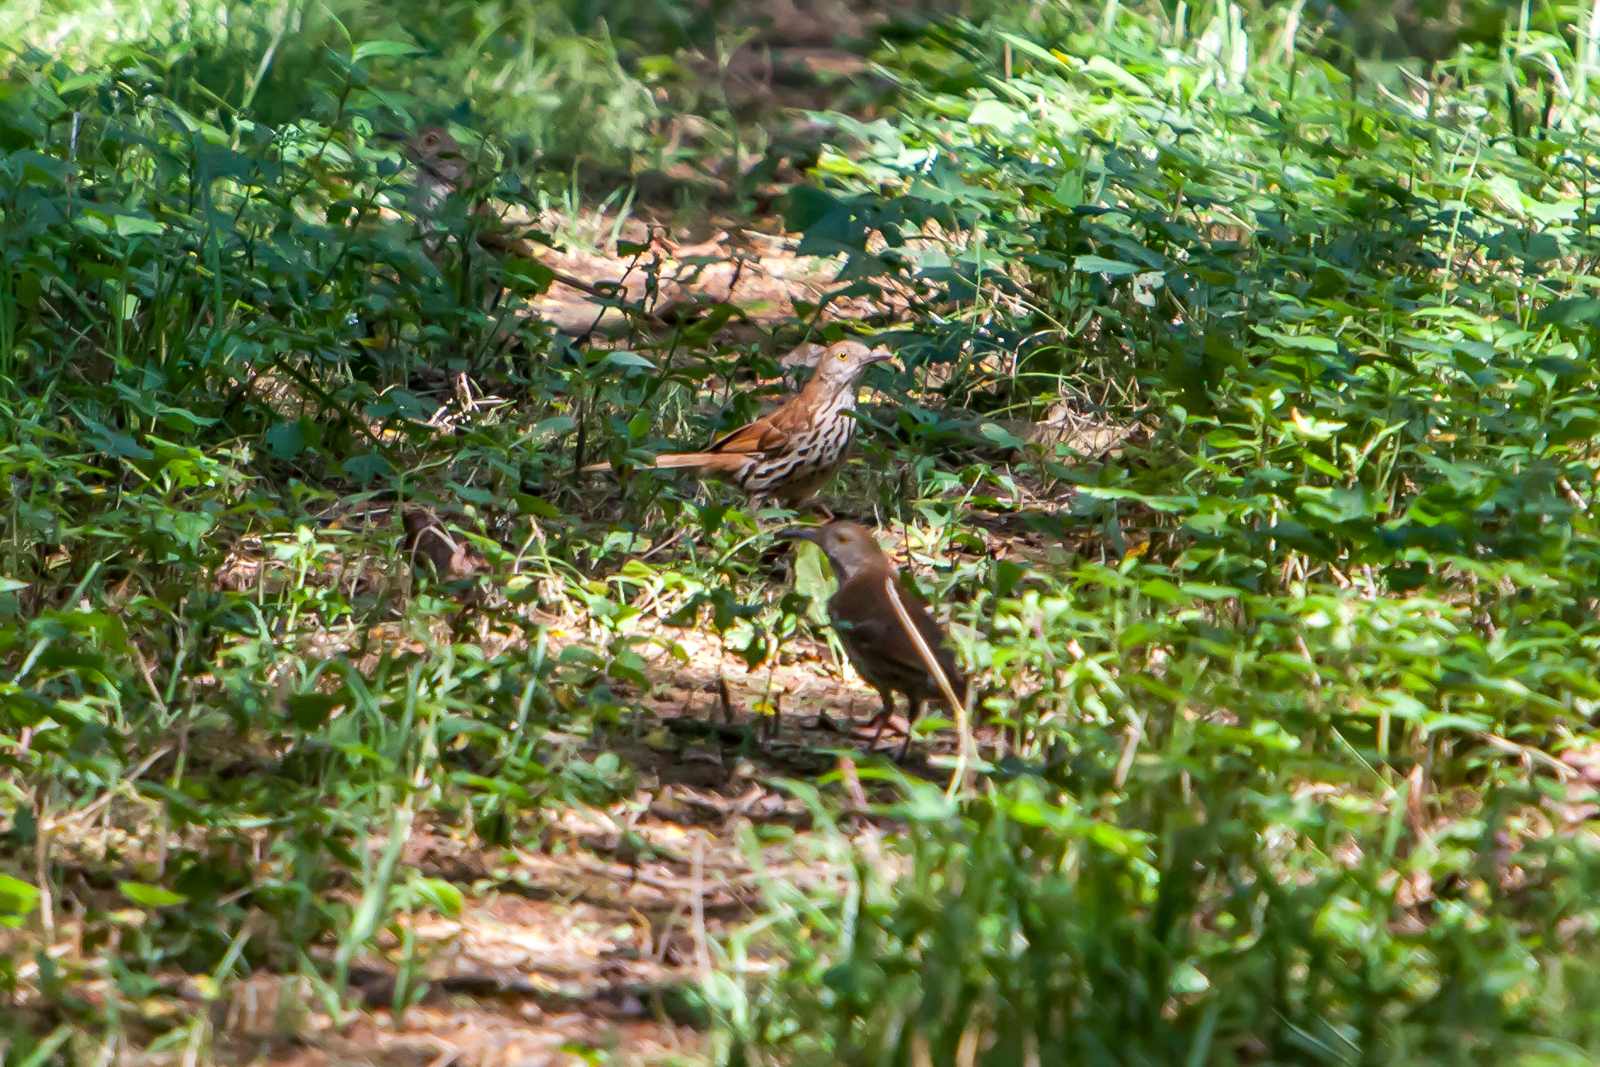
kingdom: Animalia
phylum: Chordata
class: Aves
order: Passeriformes
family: Mimidae
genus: Toxostoma
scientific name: Toxostoma rufum
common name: Brown thrasher
